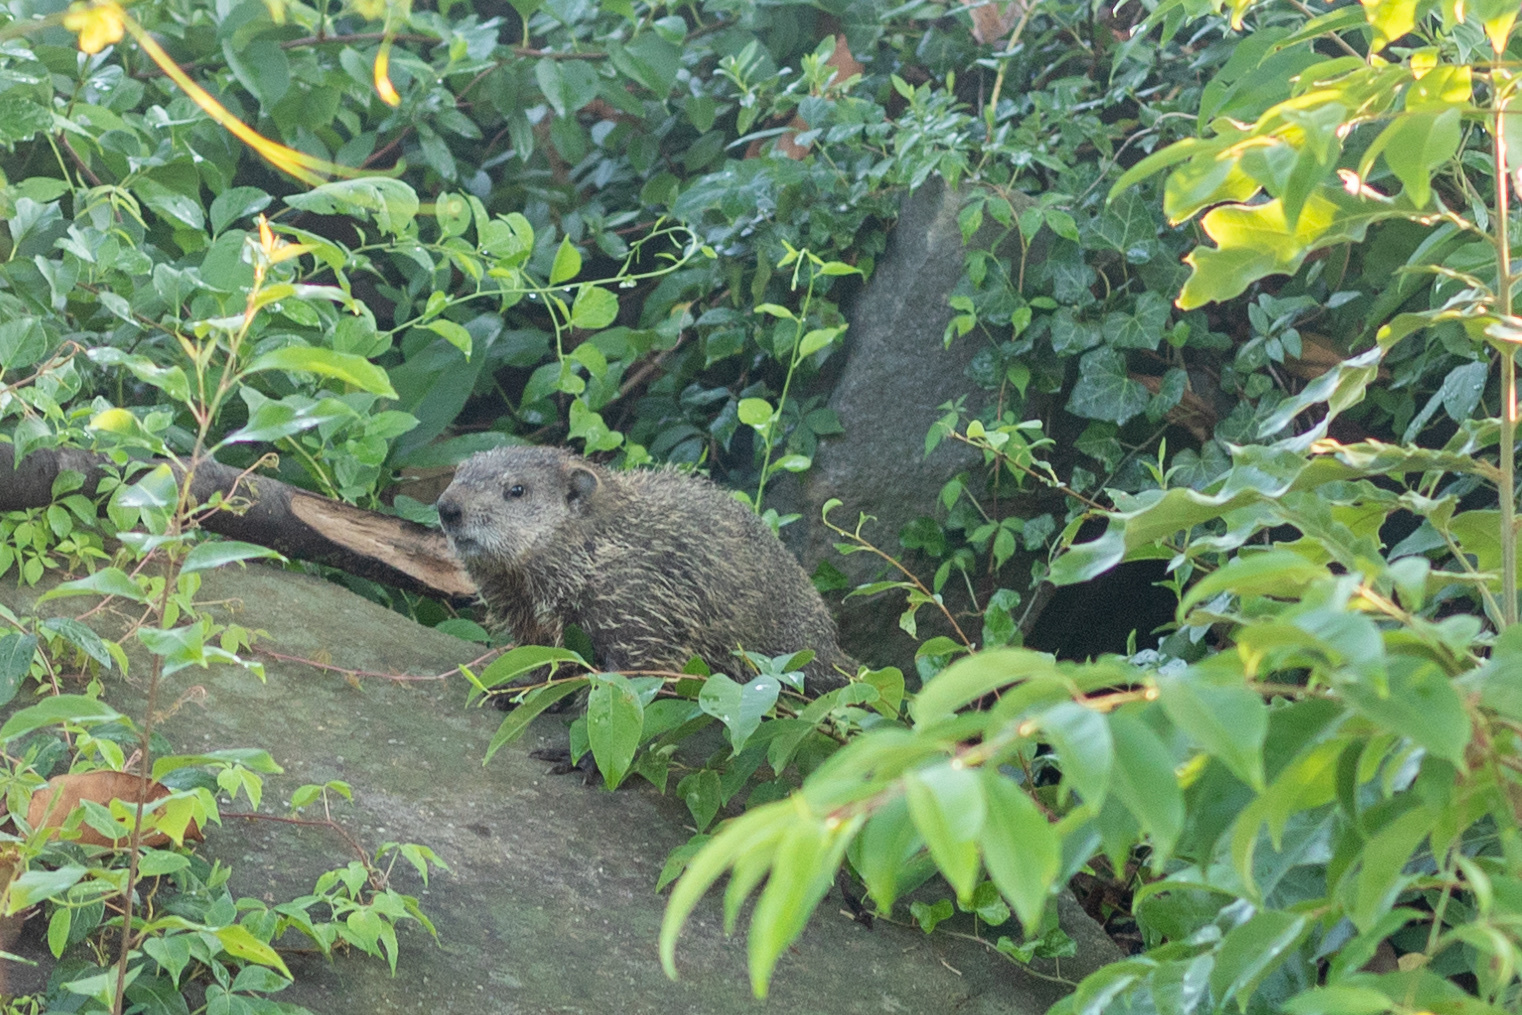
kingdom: Animalia
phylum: Chordata
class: Mammalia
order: Rodentia
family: Sciuridae
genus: Marmota
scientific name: Marmota monax
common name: Groundhog
